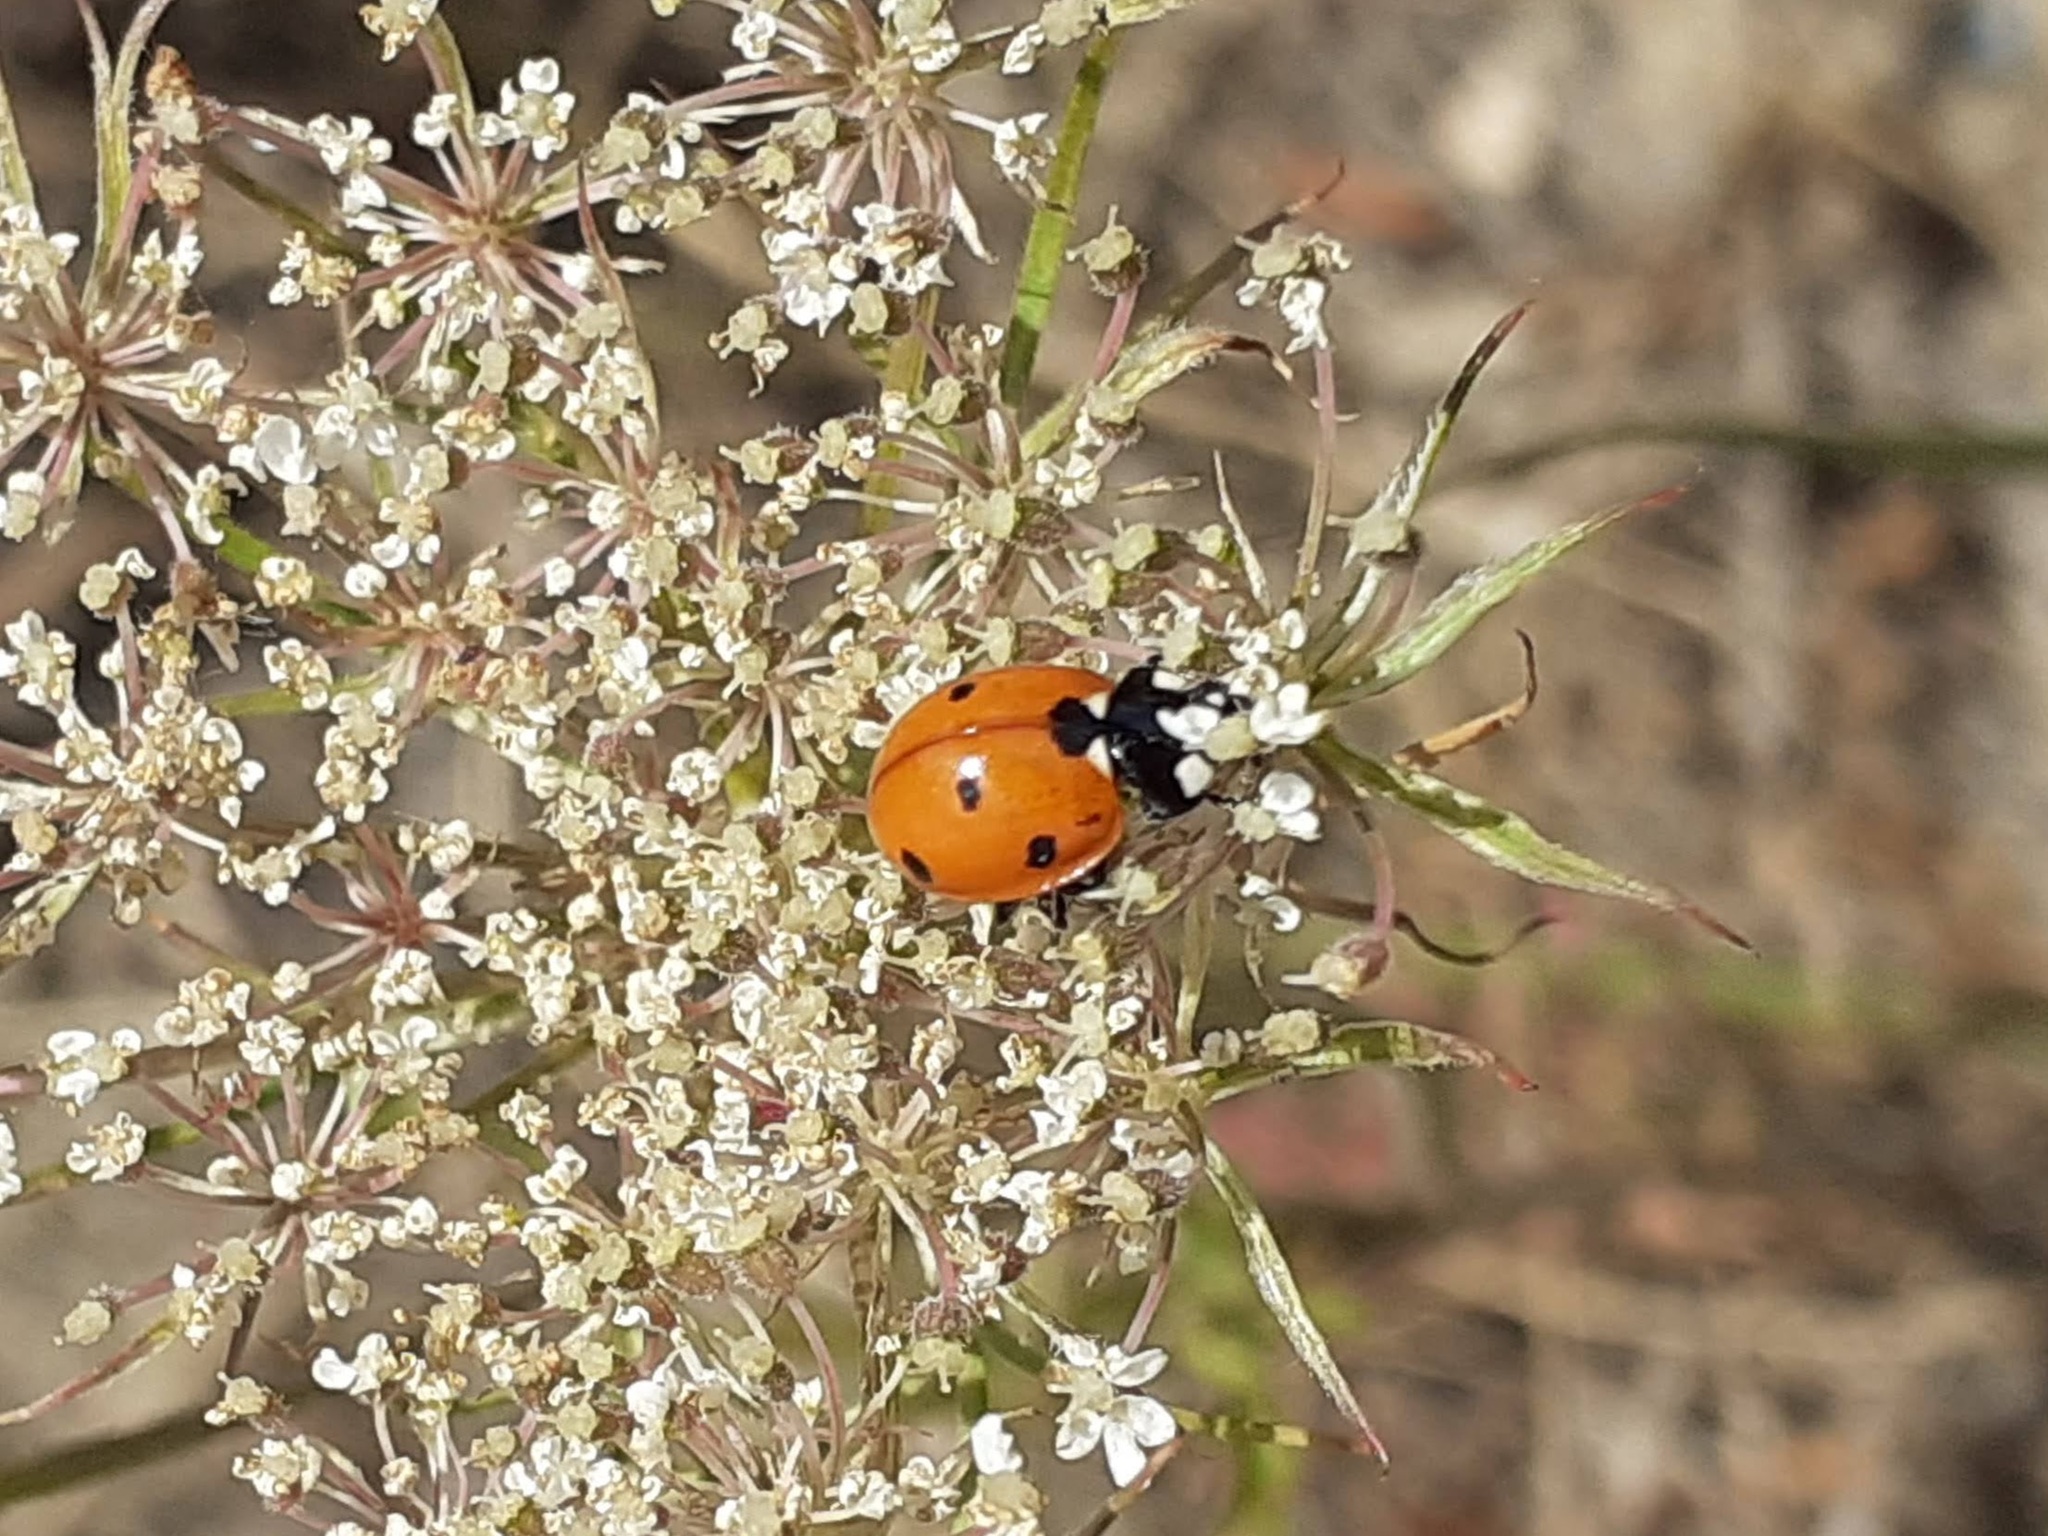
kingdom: Animalia
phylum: Arthropoda
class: Insecta
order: Coleoptera
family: Coccinellidae
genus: Coccinella
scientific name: Coccinella septempunctata
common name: Sevenspotted lady beetle
